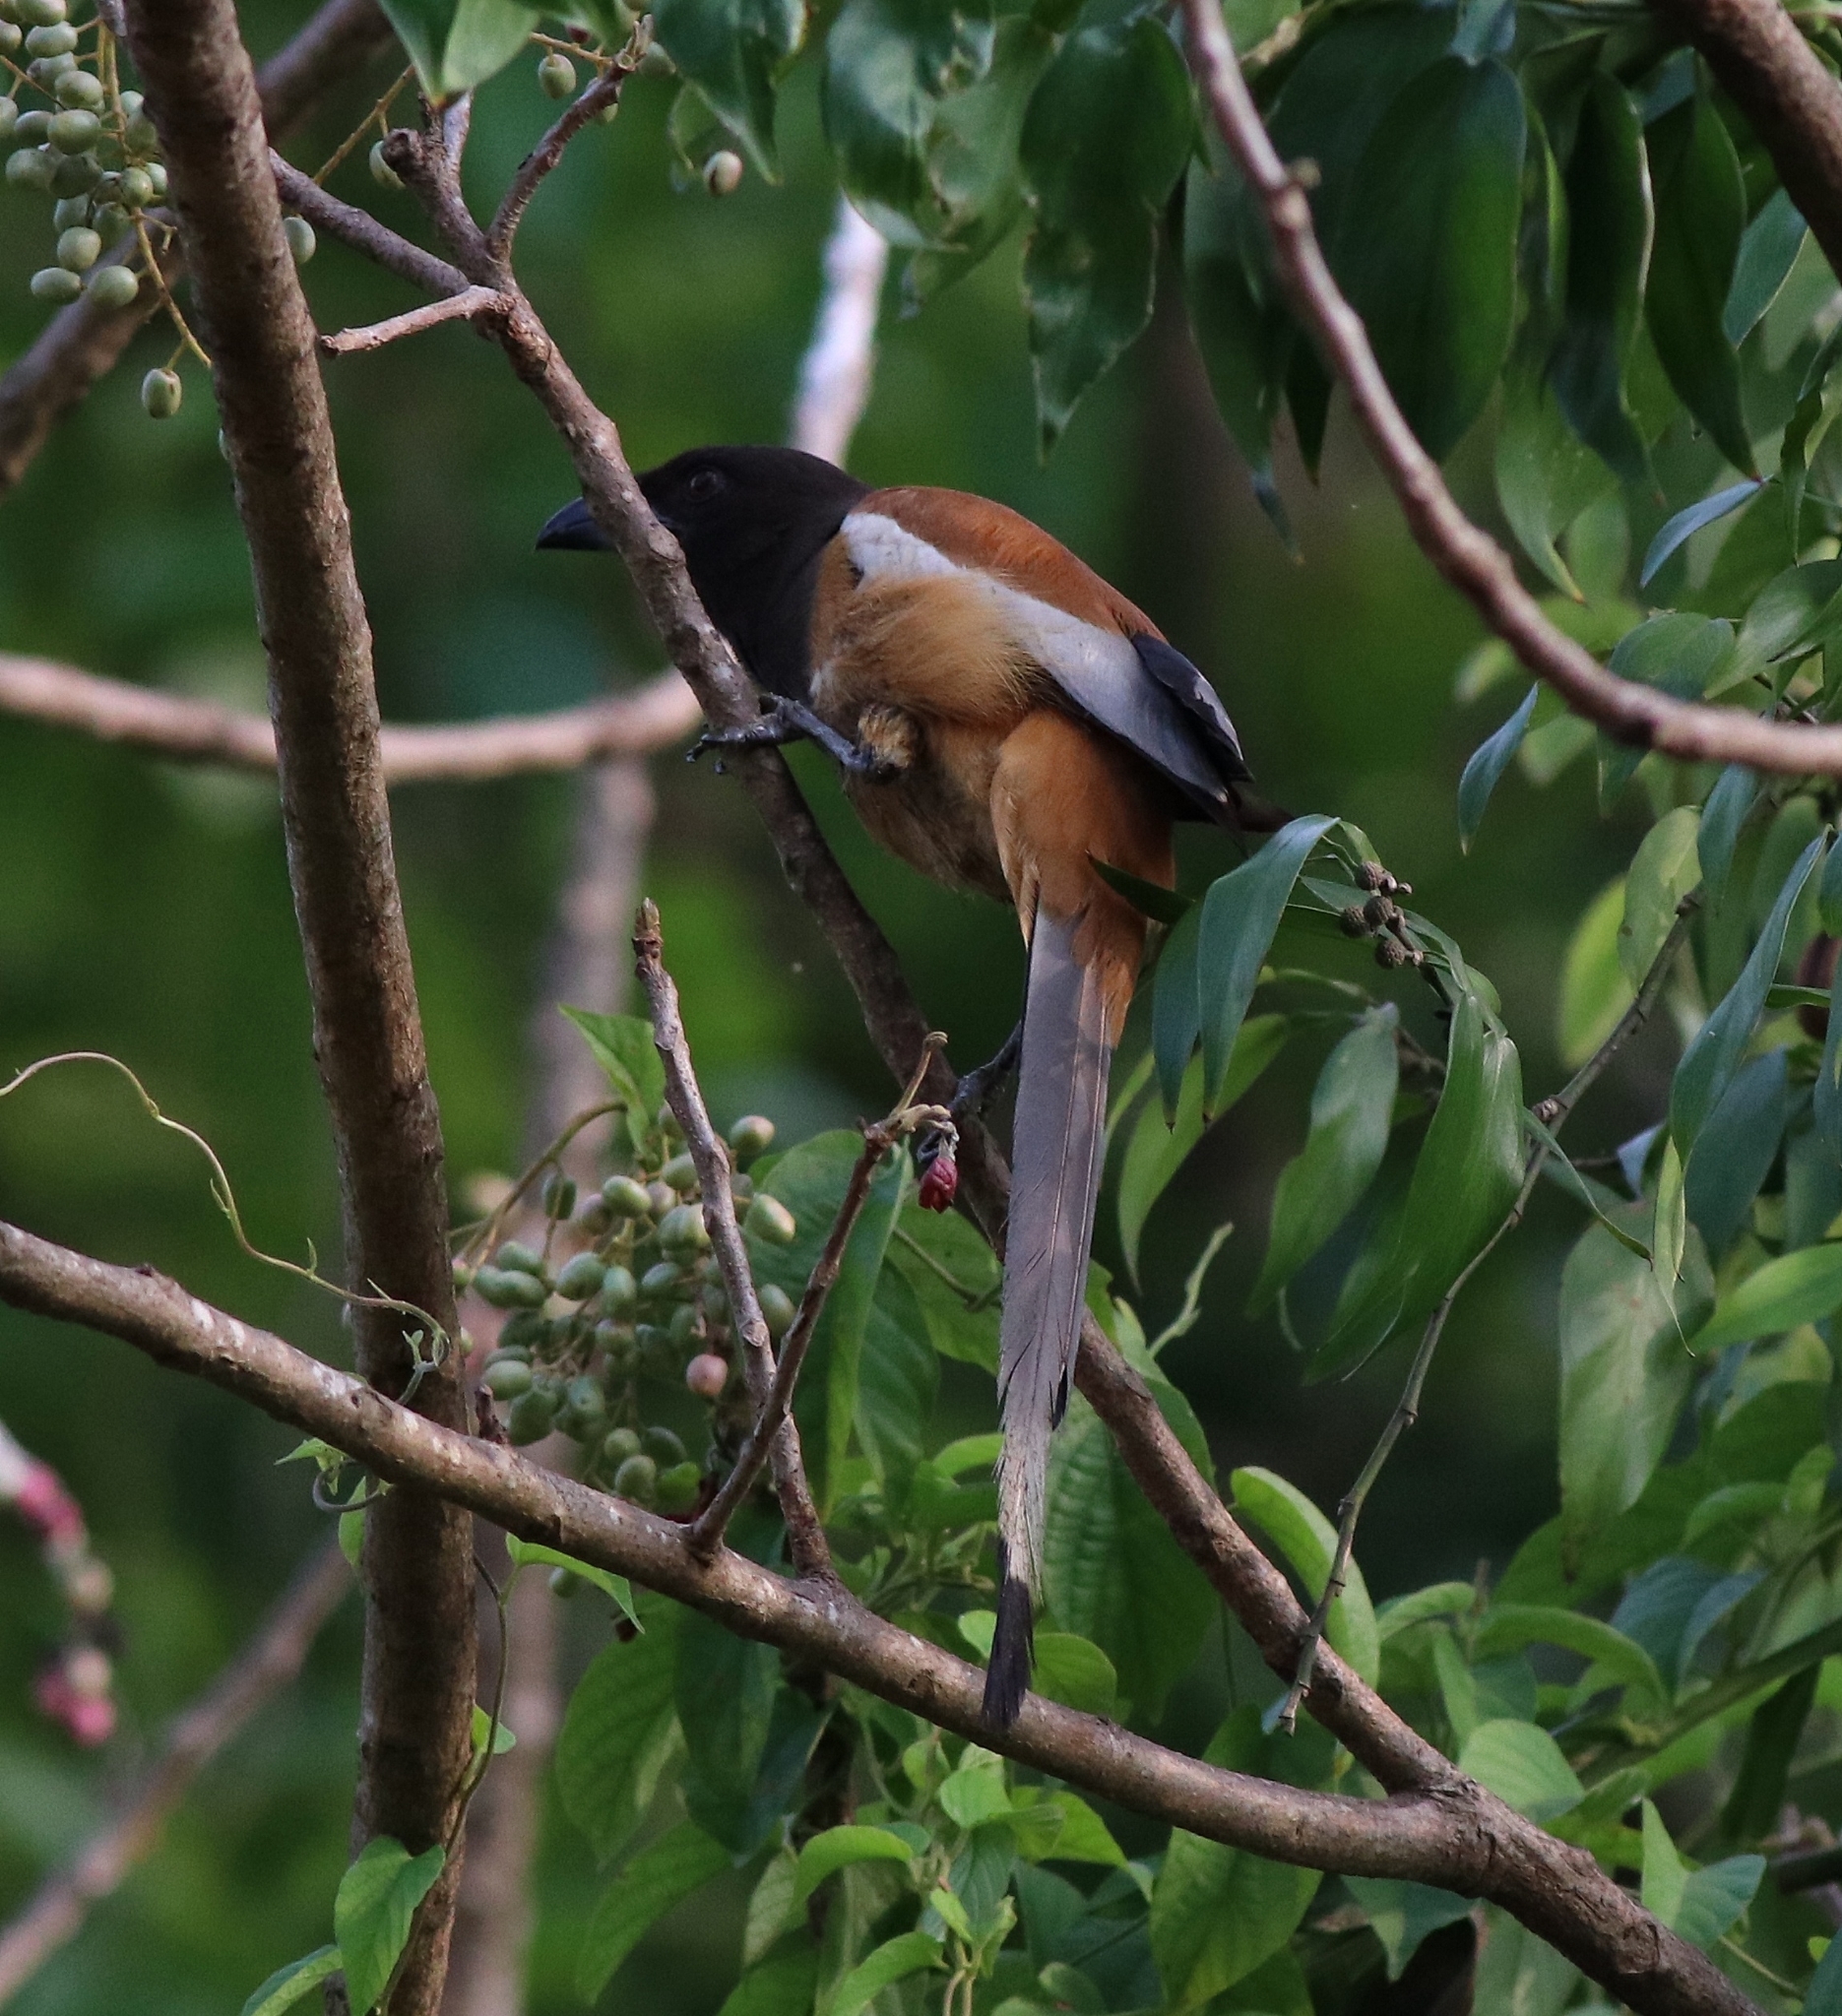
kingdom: Animalia
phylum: Chordata
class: Aves
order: Passeriformes
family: Corvidae
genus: Dendrocitta
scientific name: Dendrocitta vagabunda
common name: Rufous treepie
